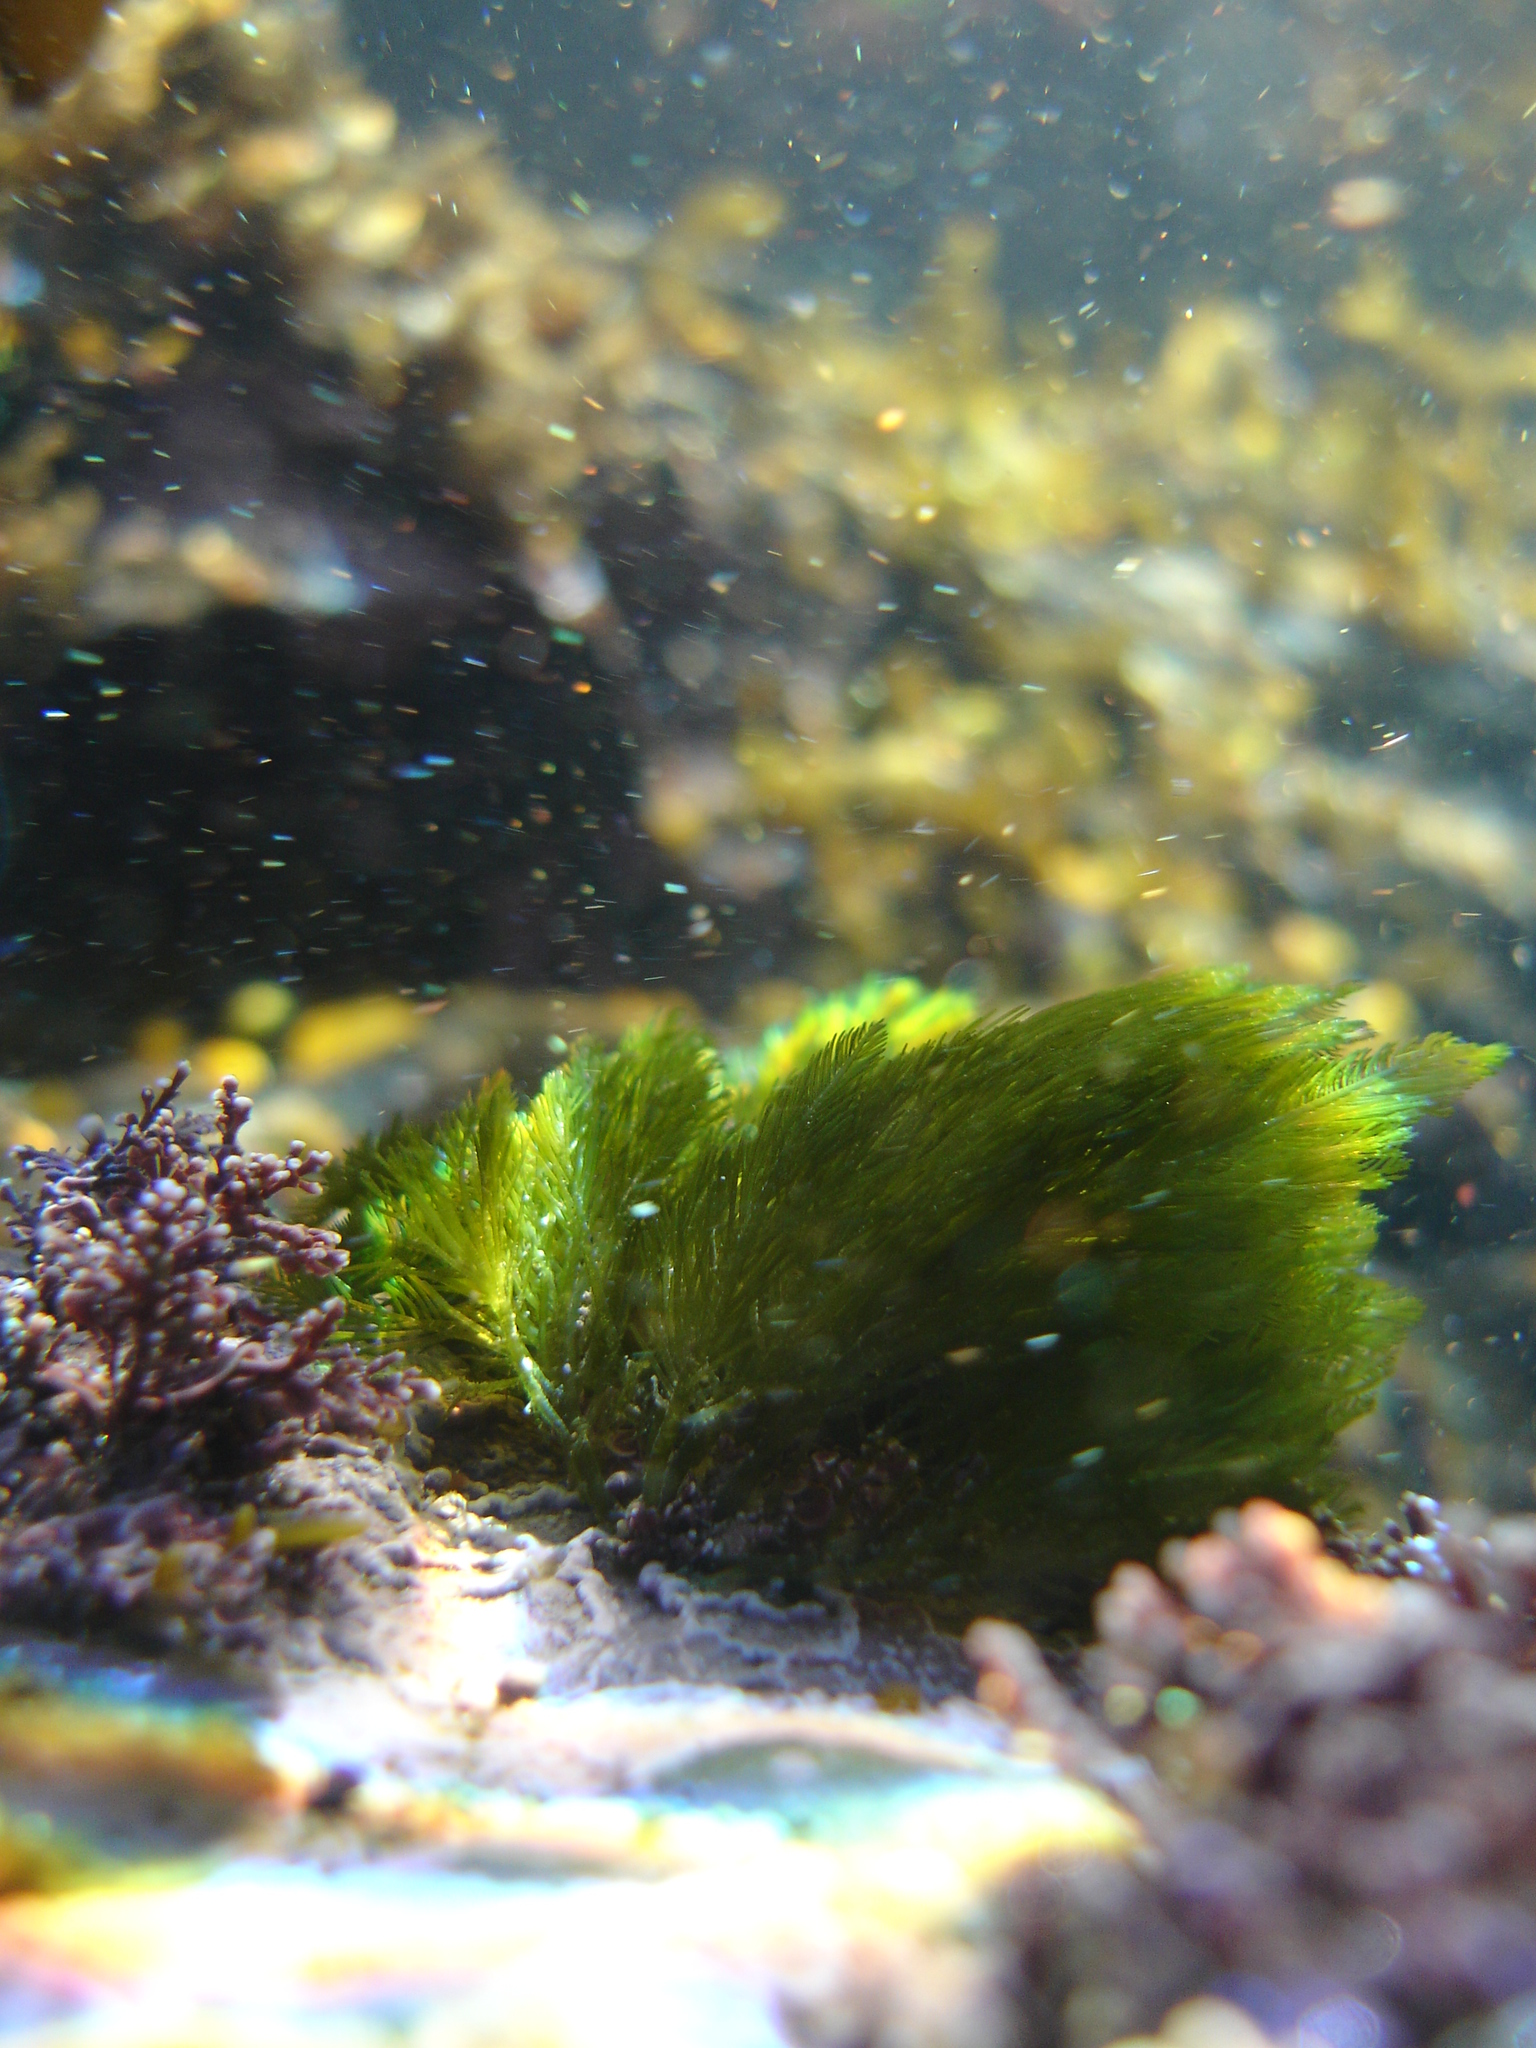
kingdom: Plantae
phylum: Chlorophyta
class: Ulvophyceae
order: Bryopsidales
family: Bryopsidaceae
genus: Bryopsis
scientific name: Bryopsis plumosa
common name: Hen pen
